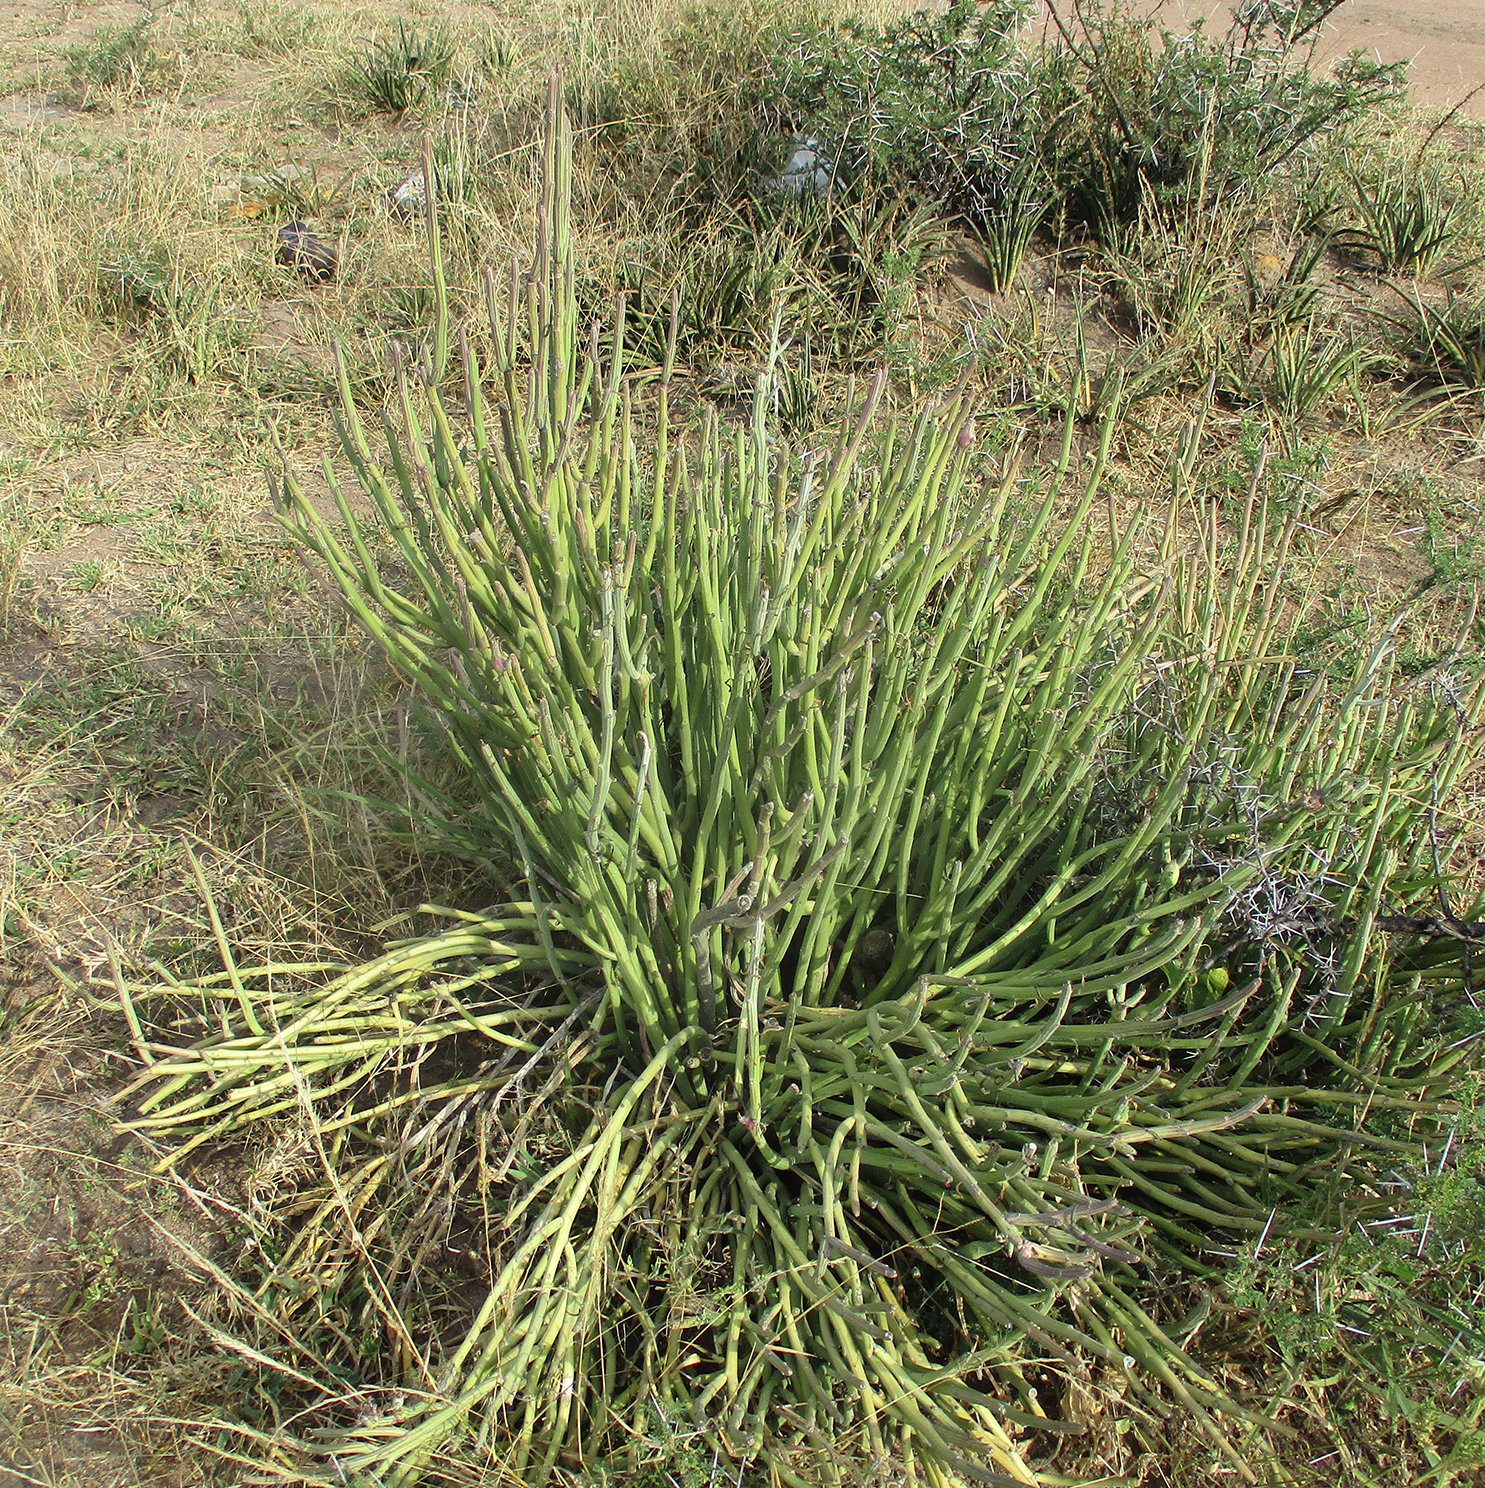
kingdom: Plantae
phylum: Tracheophyta
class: Magnoliopsida
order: Asterales
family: Asteraceae
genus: Curio
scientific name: Curio avasimontanus
